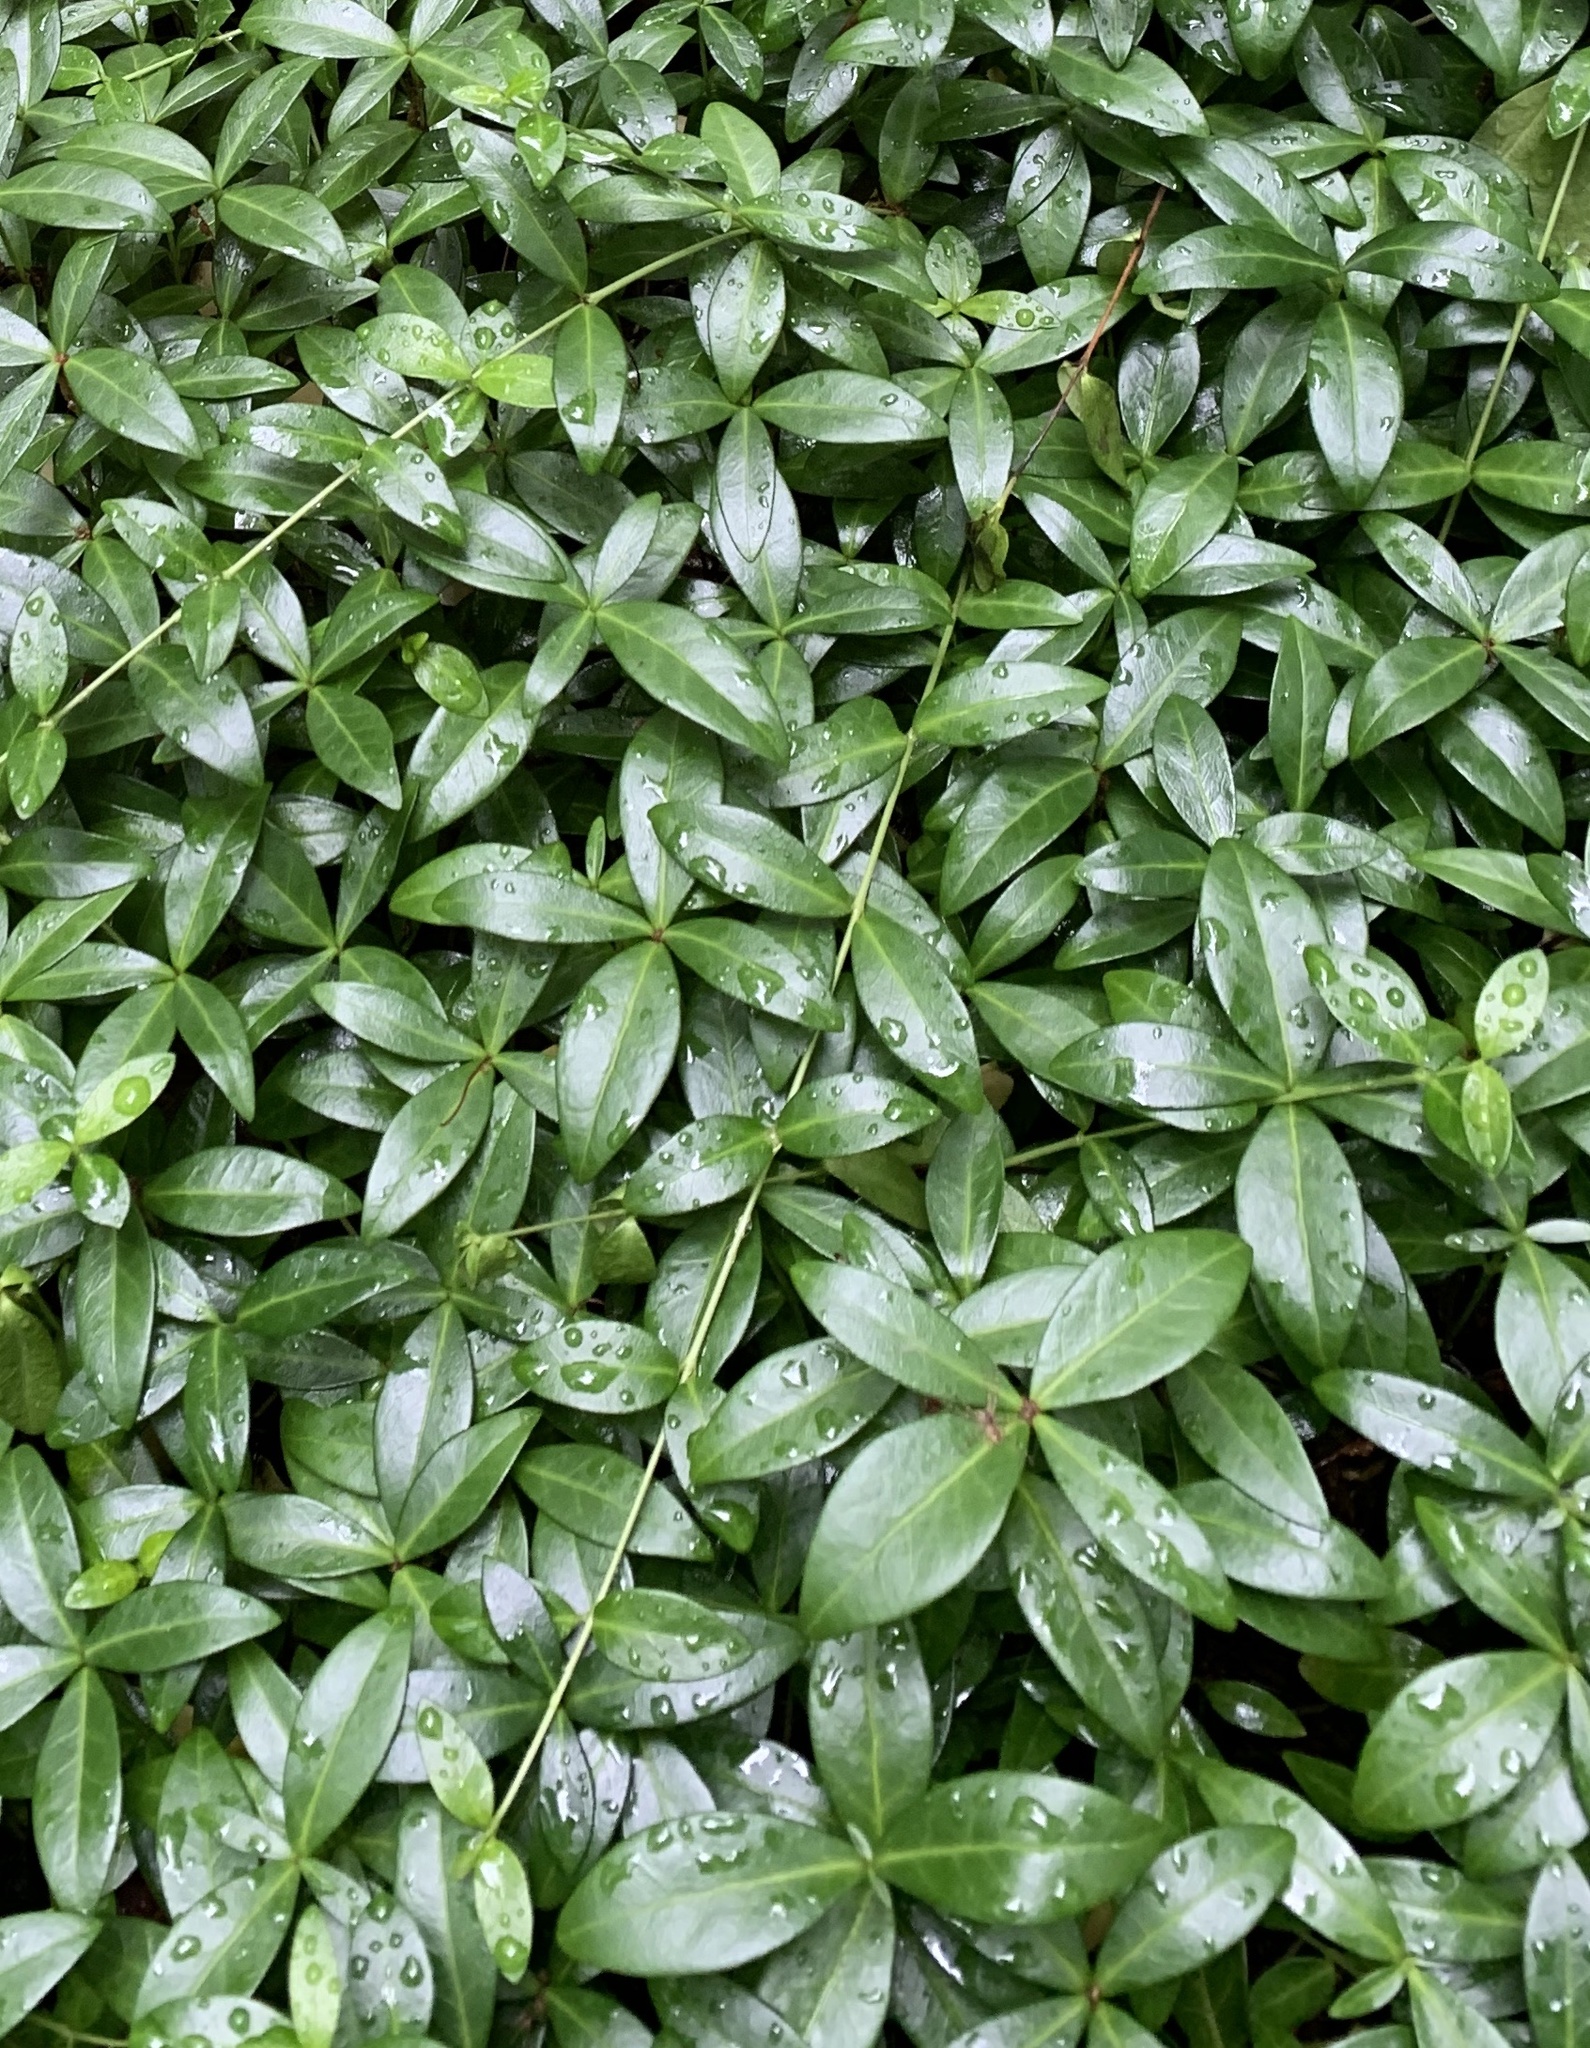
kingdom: Plantae
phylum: Tracheophyta
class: Magnoliopsida
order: Gentianales
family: Apocynaceae
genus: Vinca
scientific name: Vinca minor
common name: Lesser periwinkle
